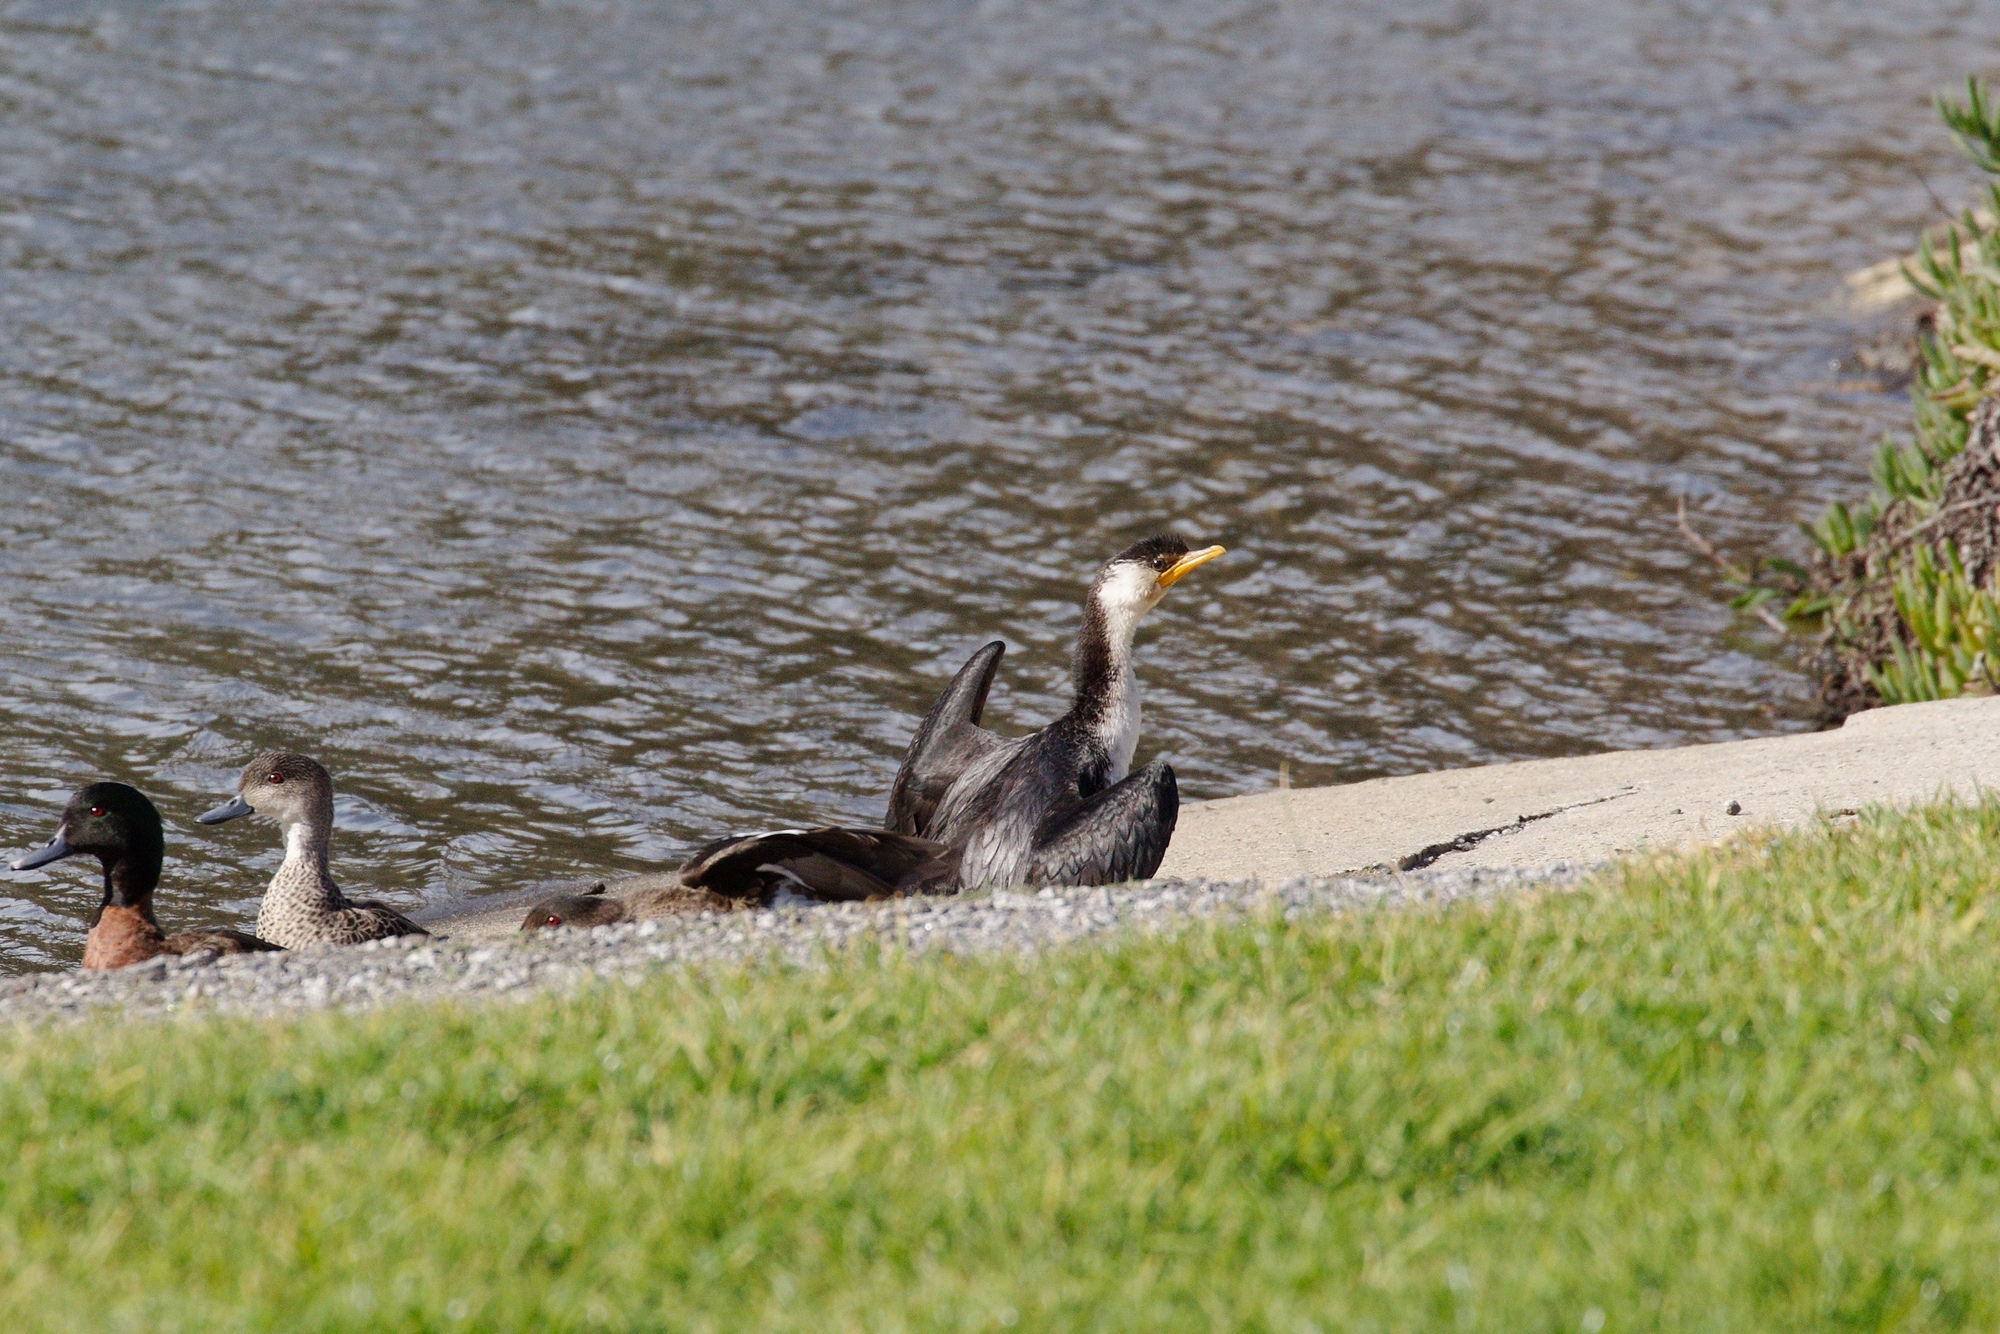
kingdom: Animalia
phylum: Chordata
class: Aves
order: Suliformes
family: Phalacrocoracidae
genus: Microcarbo
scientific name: Microcarbo melanoleucos
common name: Little pied cormorant
